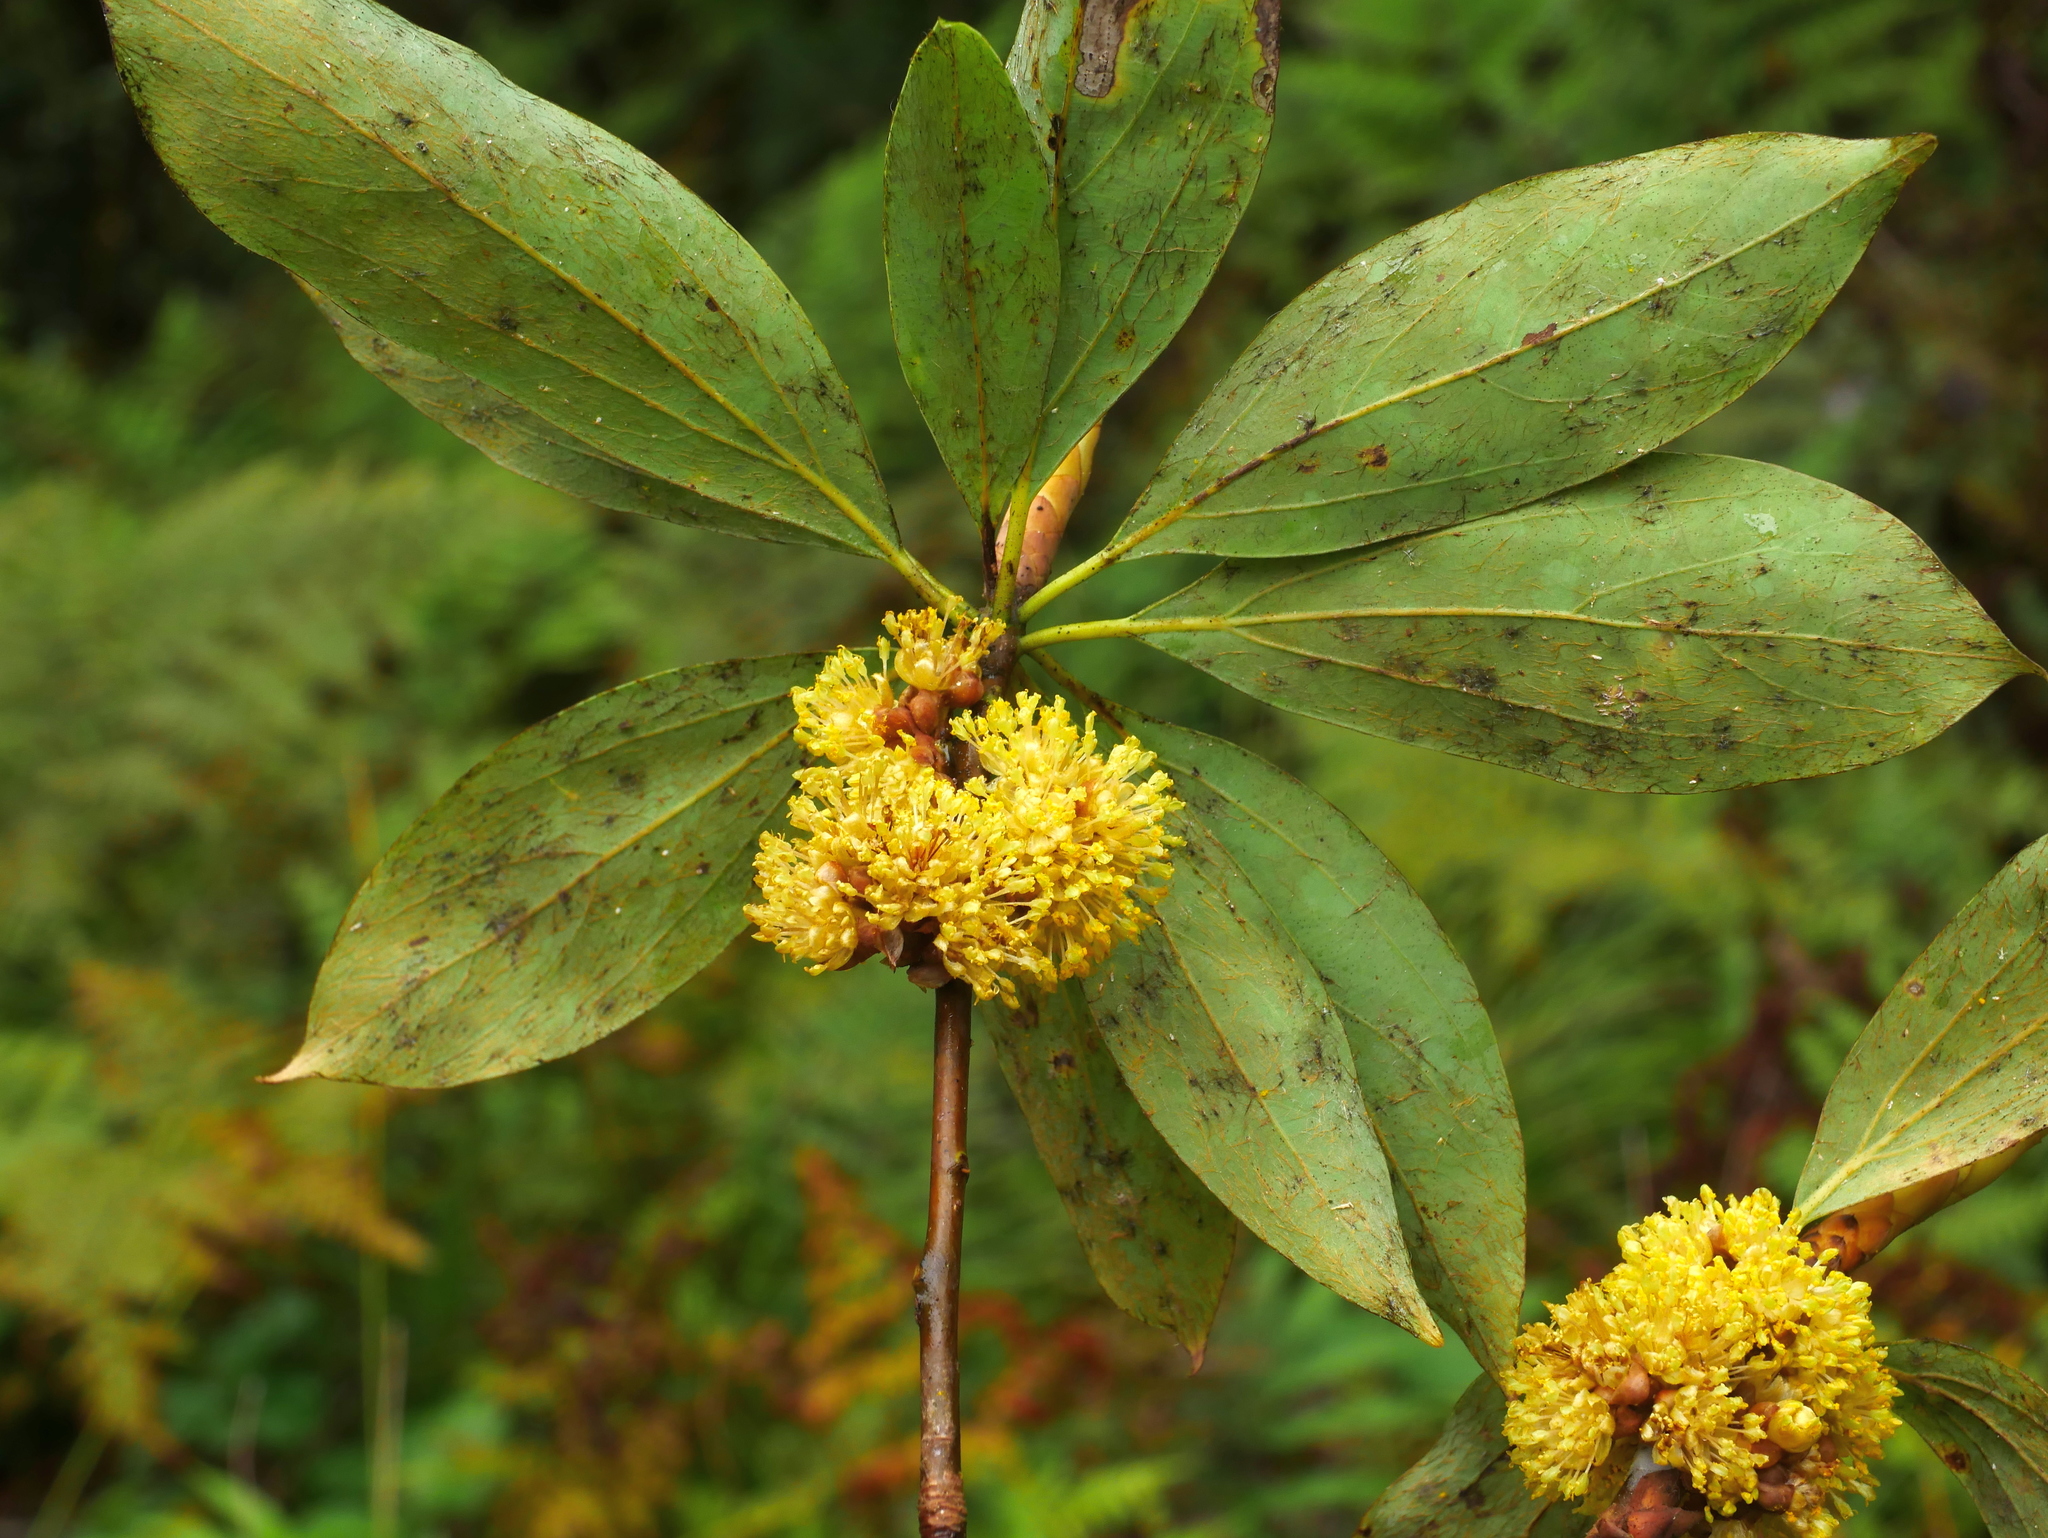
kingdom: Plantae
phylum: Tracheophyta
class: Magnoliopsida
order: Laurales
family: Lauraceae
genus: Neolitsea
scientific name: Neolitsea konishii
